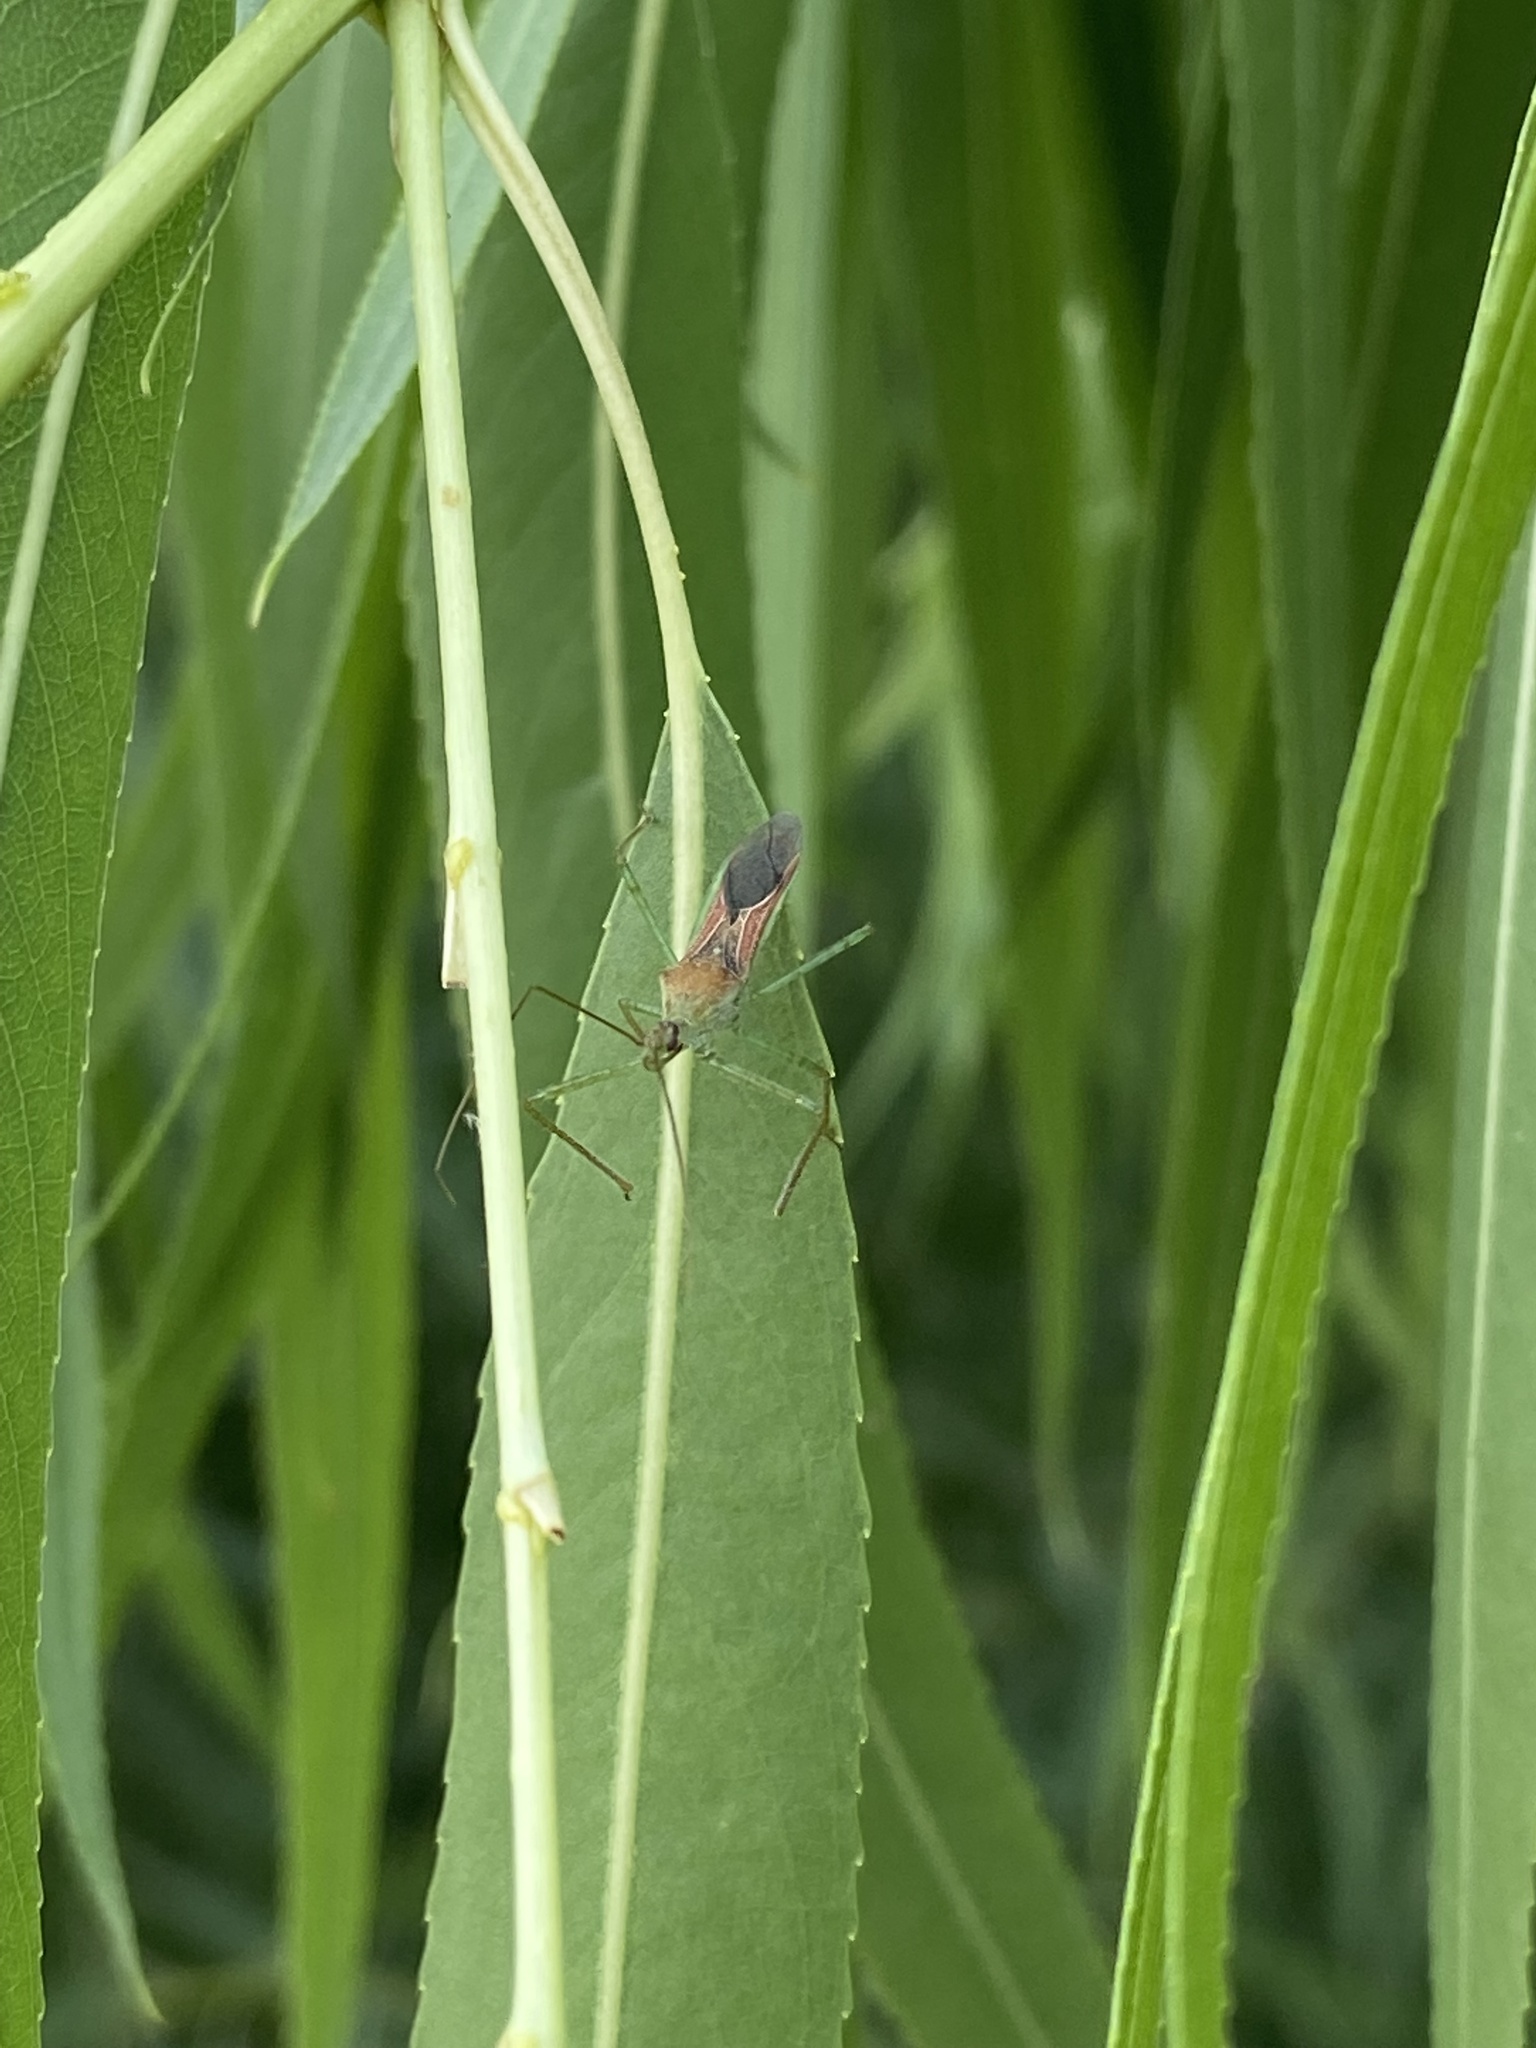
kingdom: Animalia
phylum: Arthropoda
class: Insecta
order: Hemiptera
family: Reduviidae
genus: Zelus
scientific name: Zelus renardii
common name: Assassin bug
